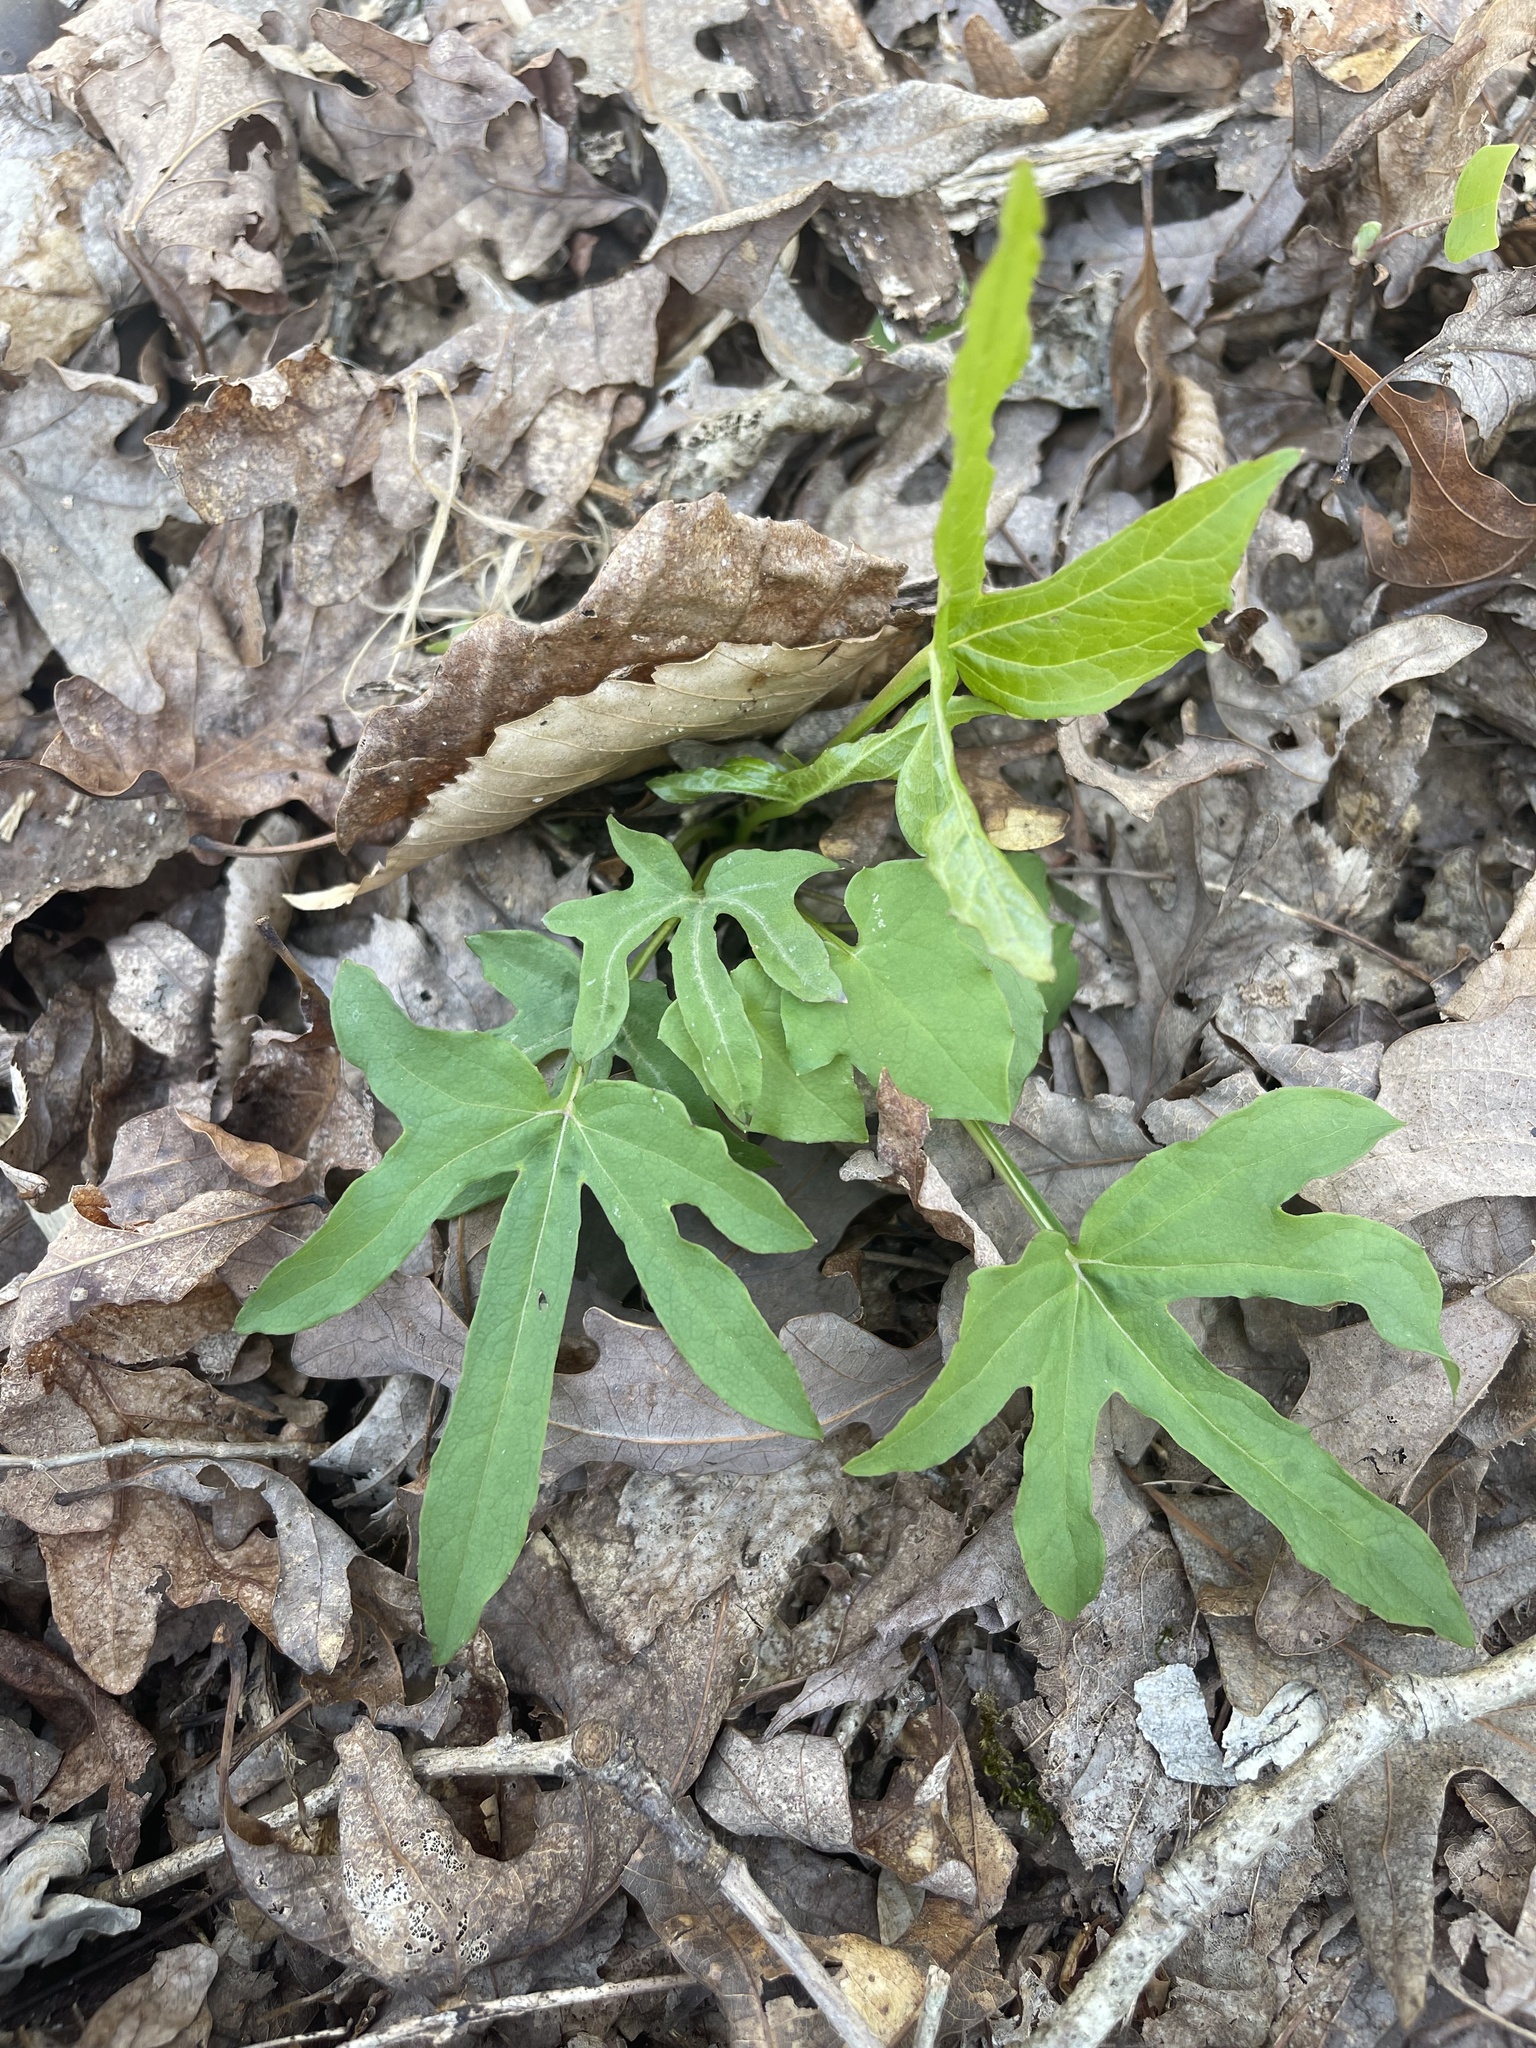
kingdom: Plantae
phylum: Tracheophyta
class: Magnoliopsida
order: Asterales
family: Asteraceae
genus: Nabalus
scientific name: Nabalus altissima
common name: Tall rattlesnakeroot
